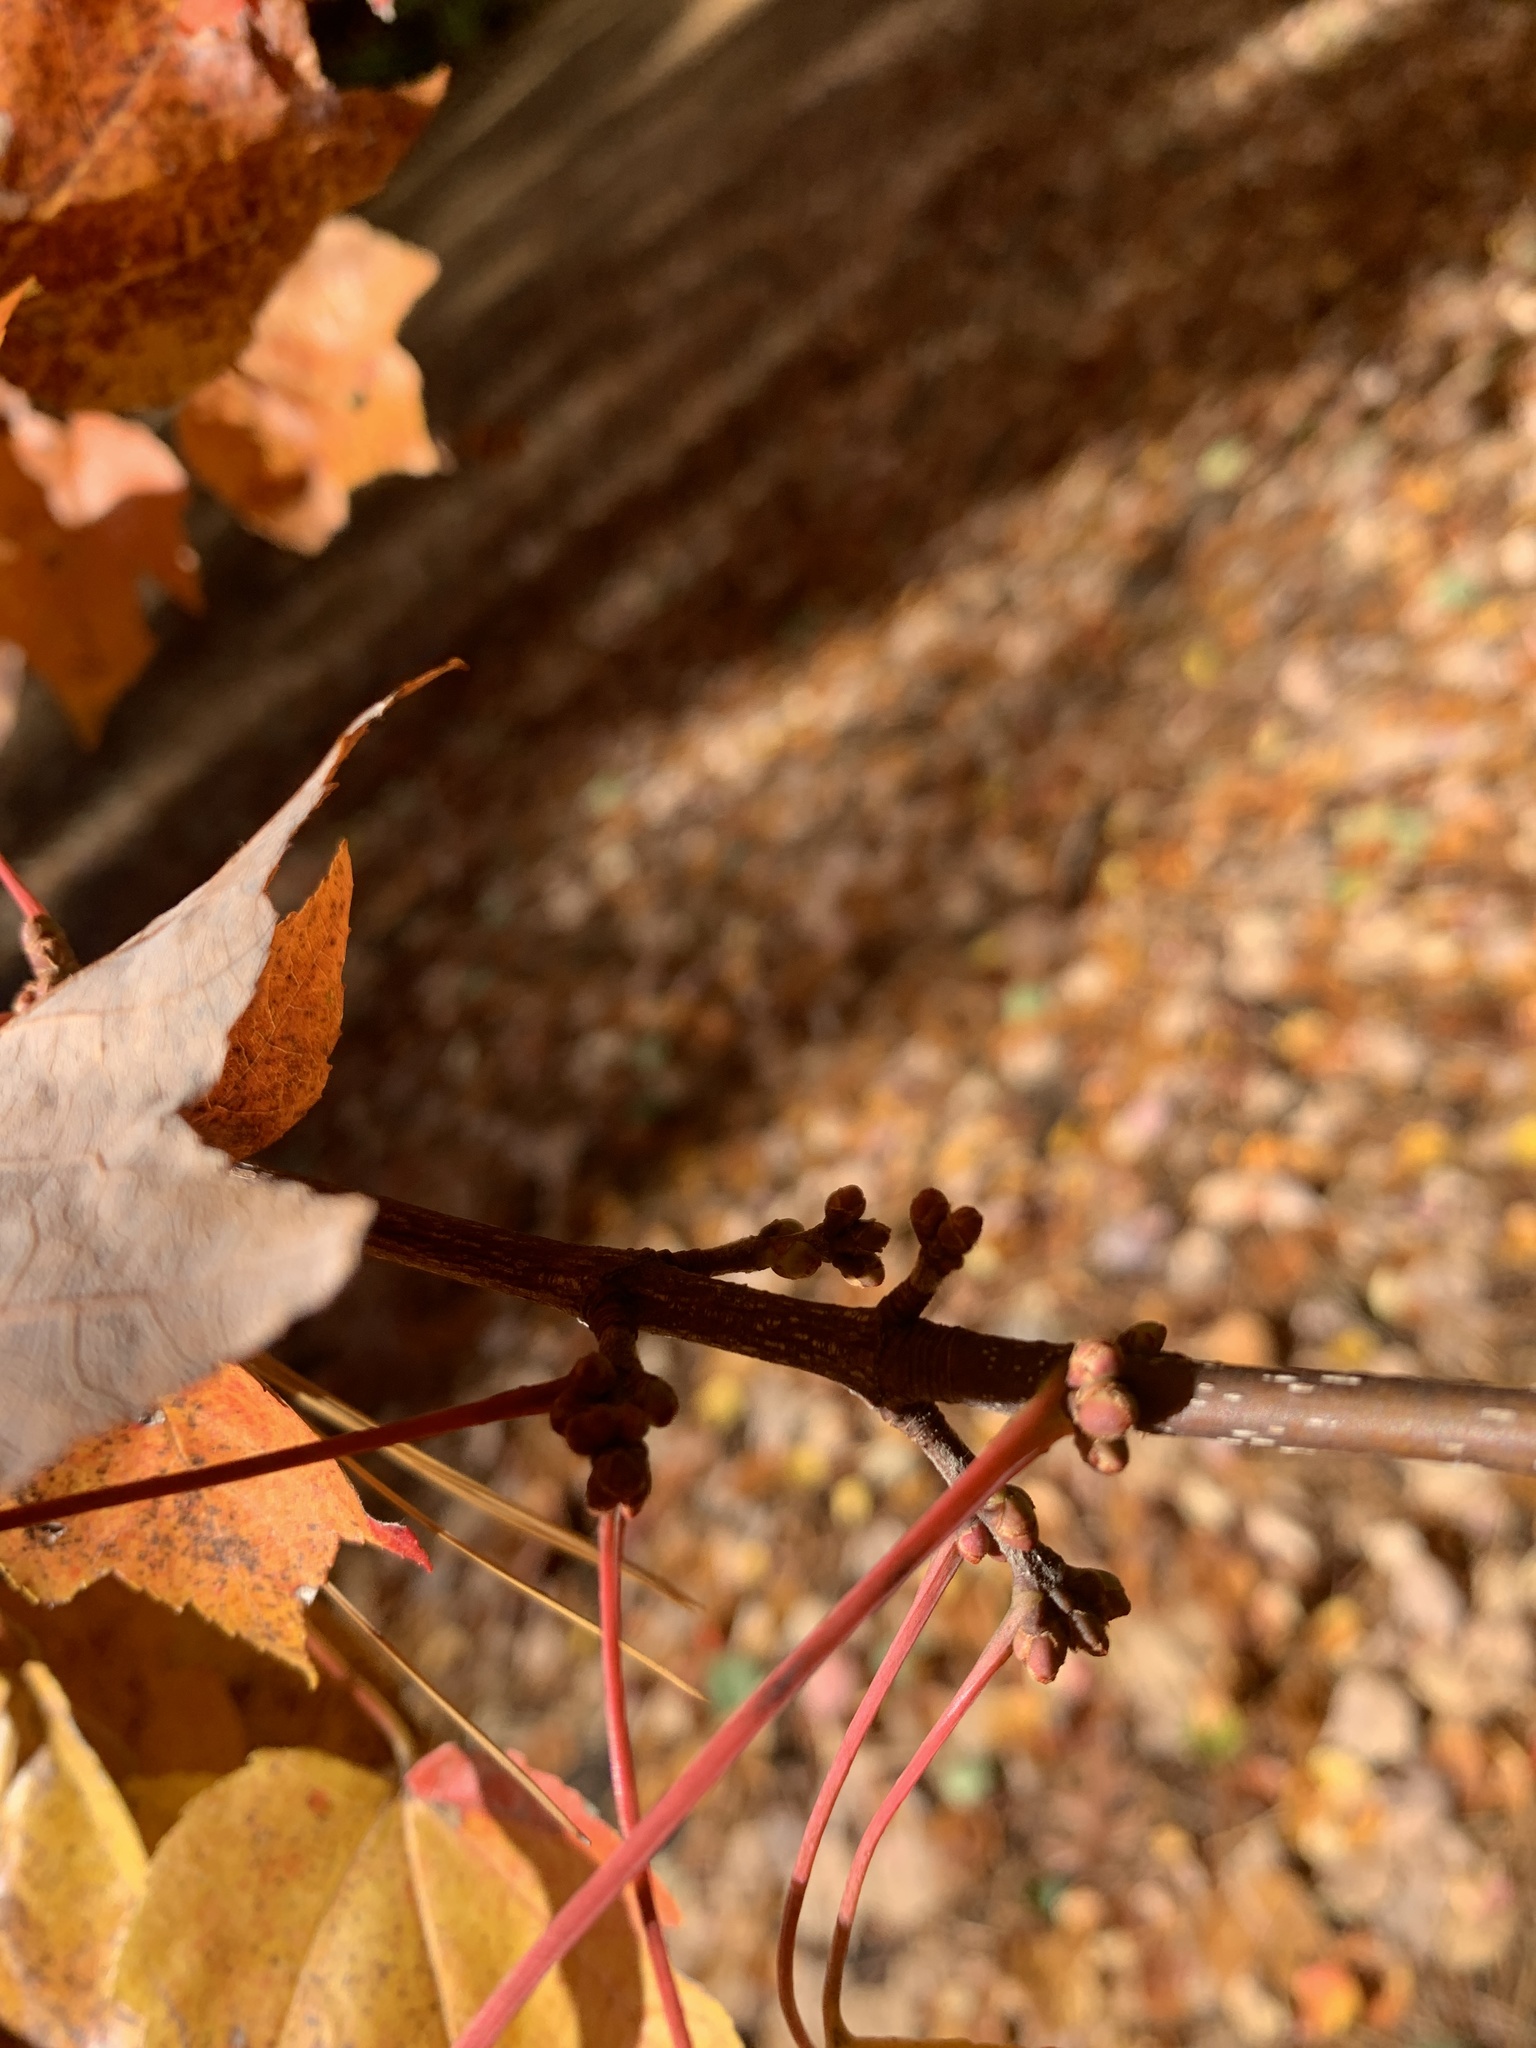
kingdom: Plantae
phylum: Tracheophyta
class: Magnoliopsida
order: Sapindales
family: Sapindaceae
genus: Acer
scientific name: Acer rubrum
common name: Red maple
